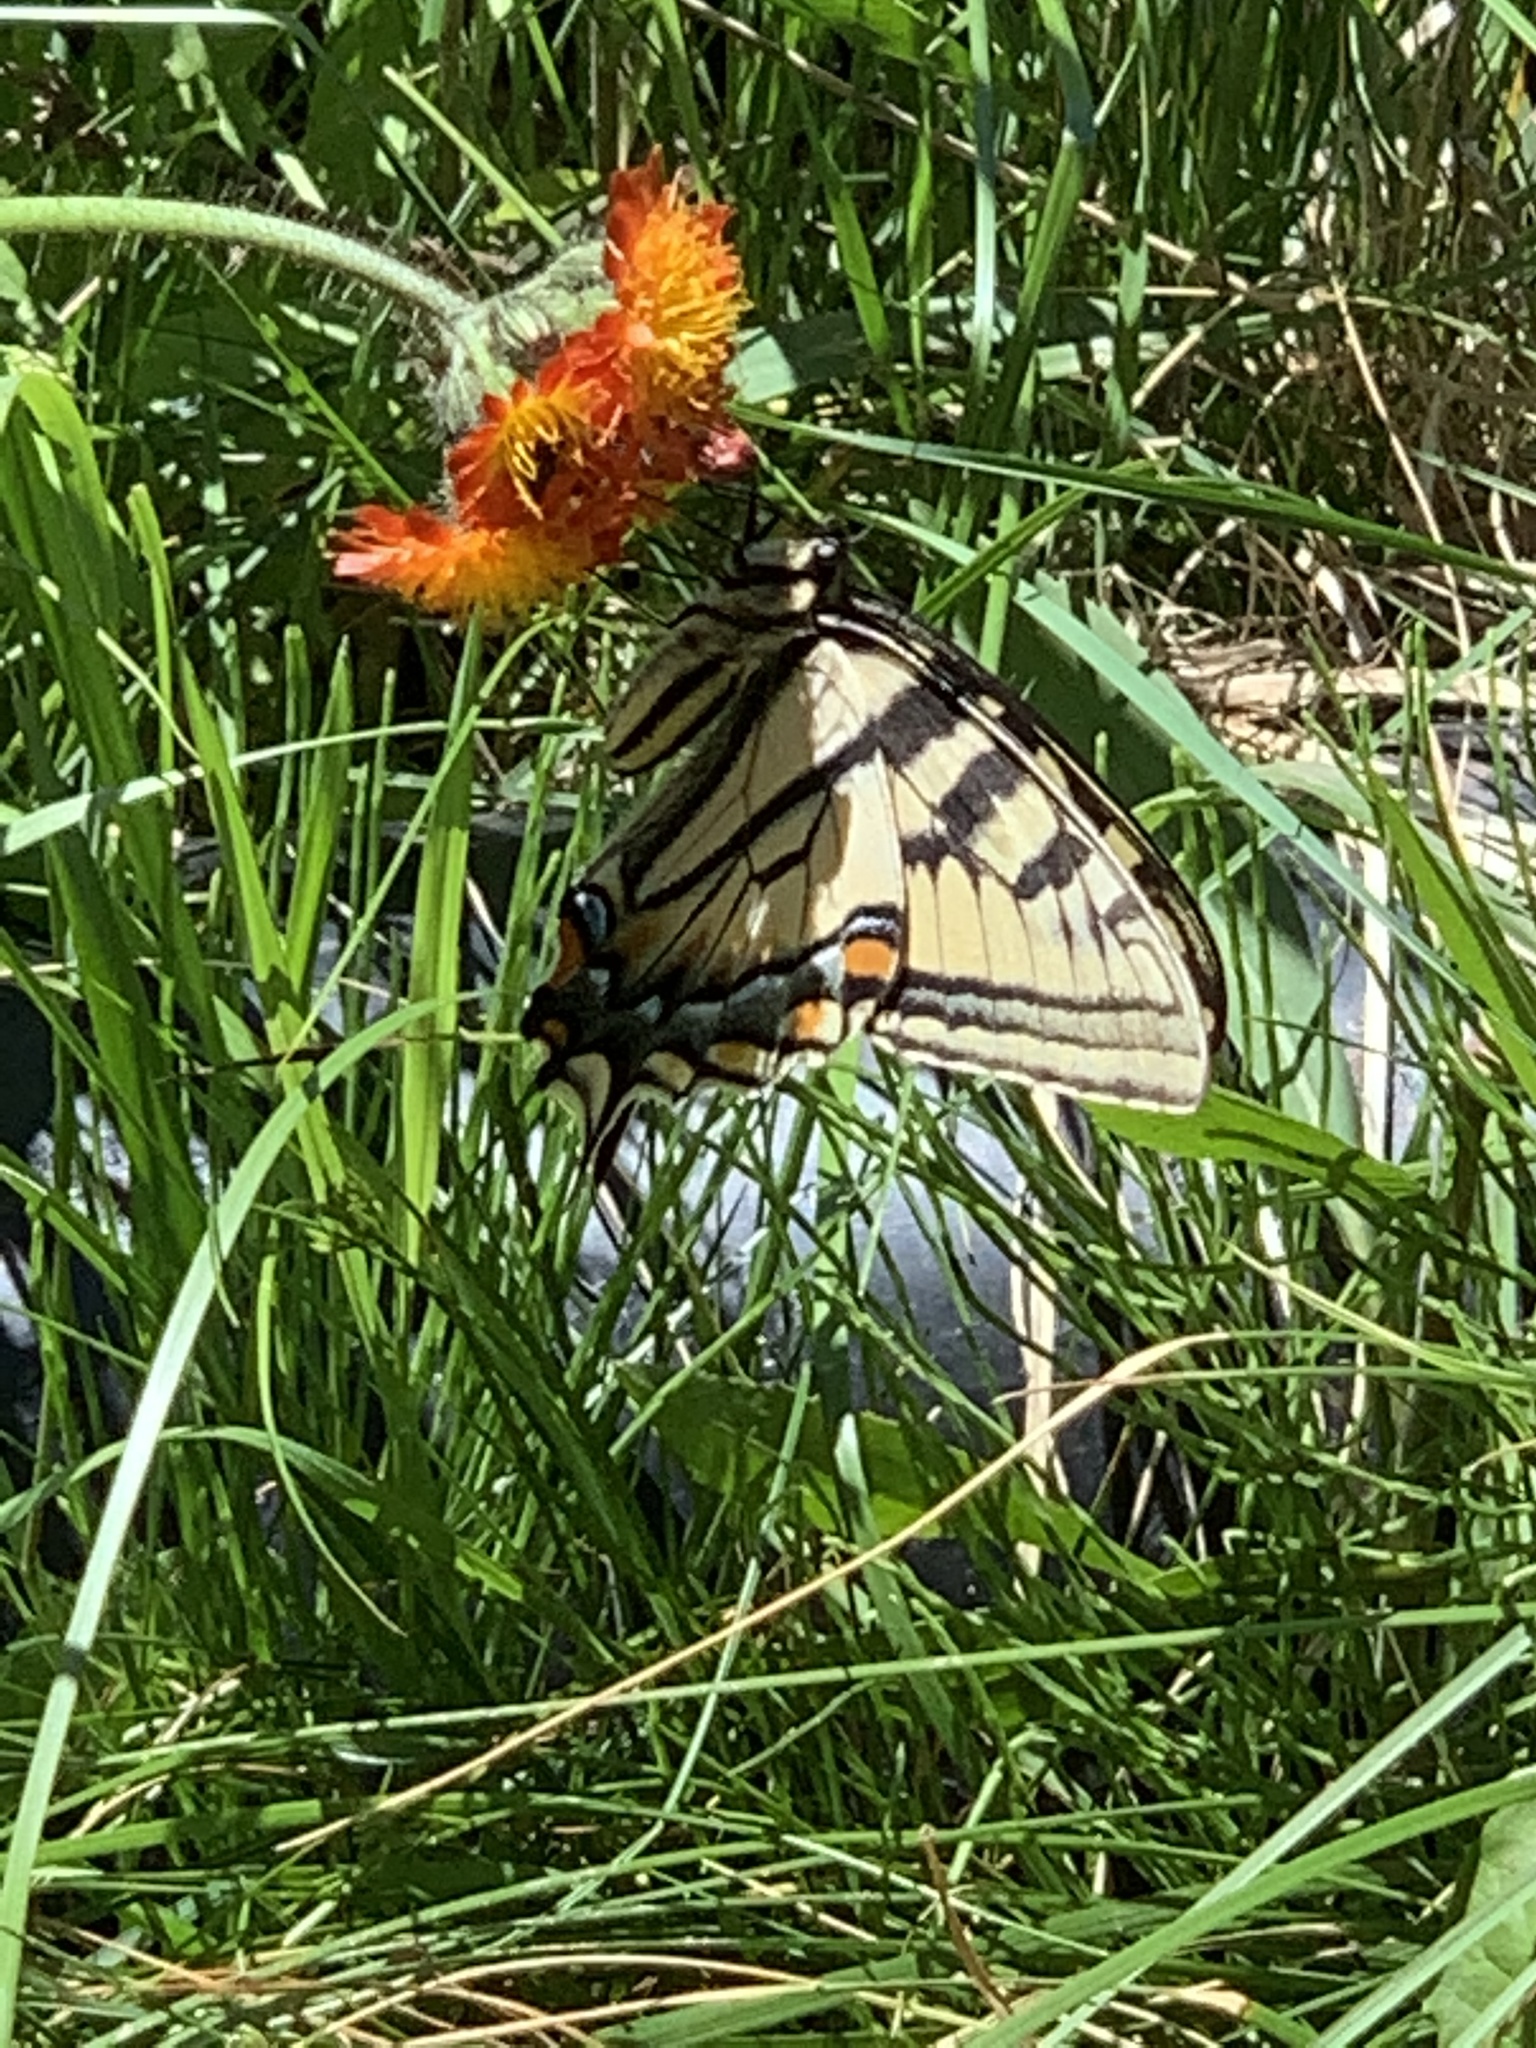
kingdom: Animalia
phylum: Arthropoda
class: Insecta
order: Lepidoptera
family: Papilionidae
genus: Papilio
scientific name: Papilio canadensis
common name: Canadian tiger swallowtail
